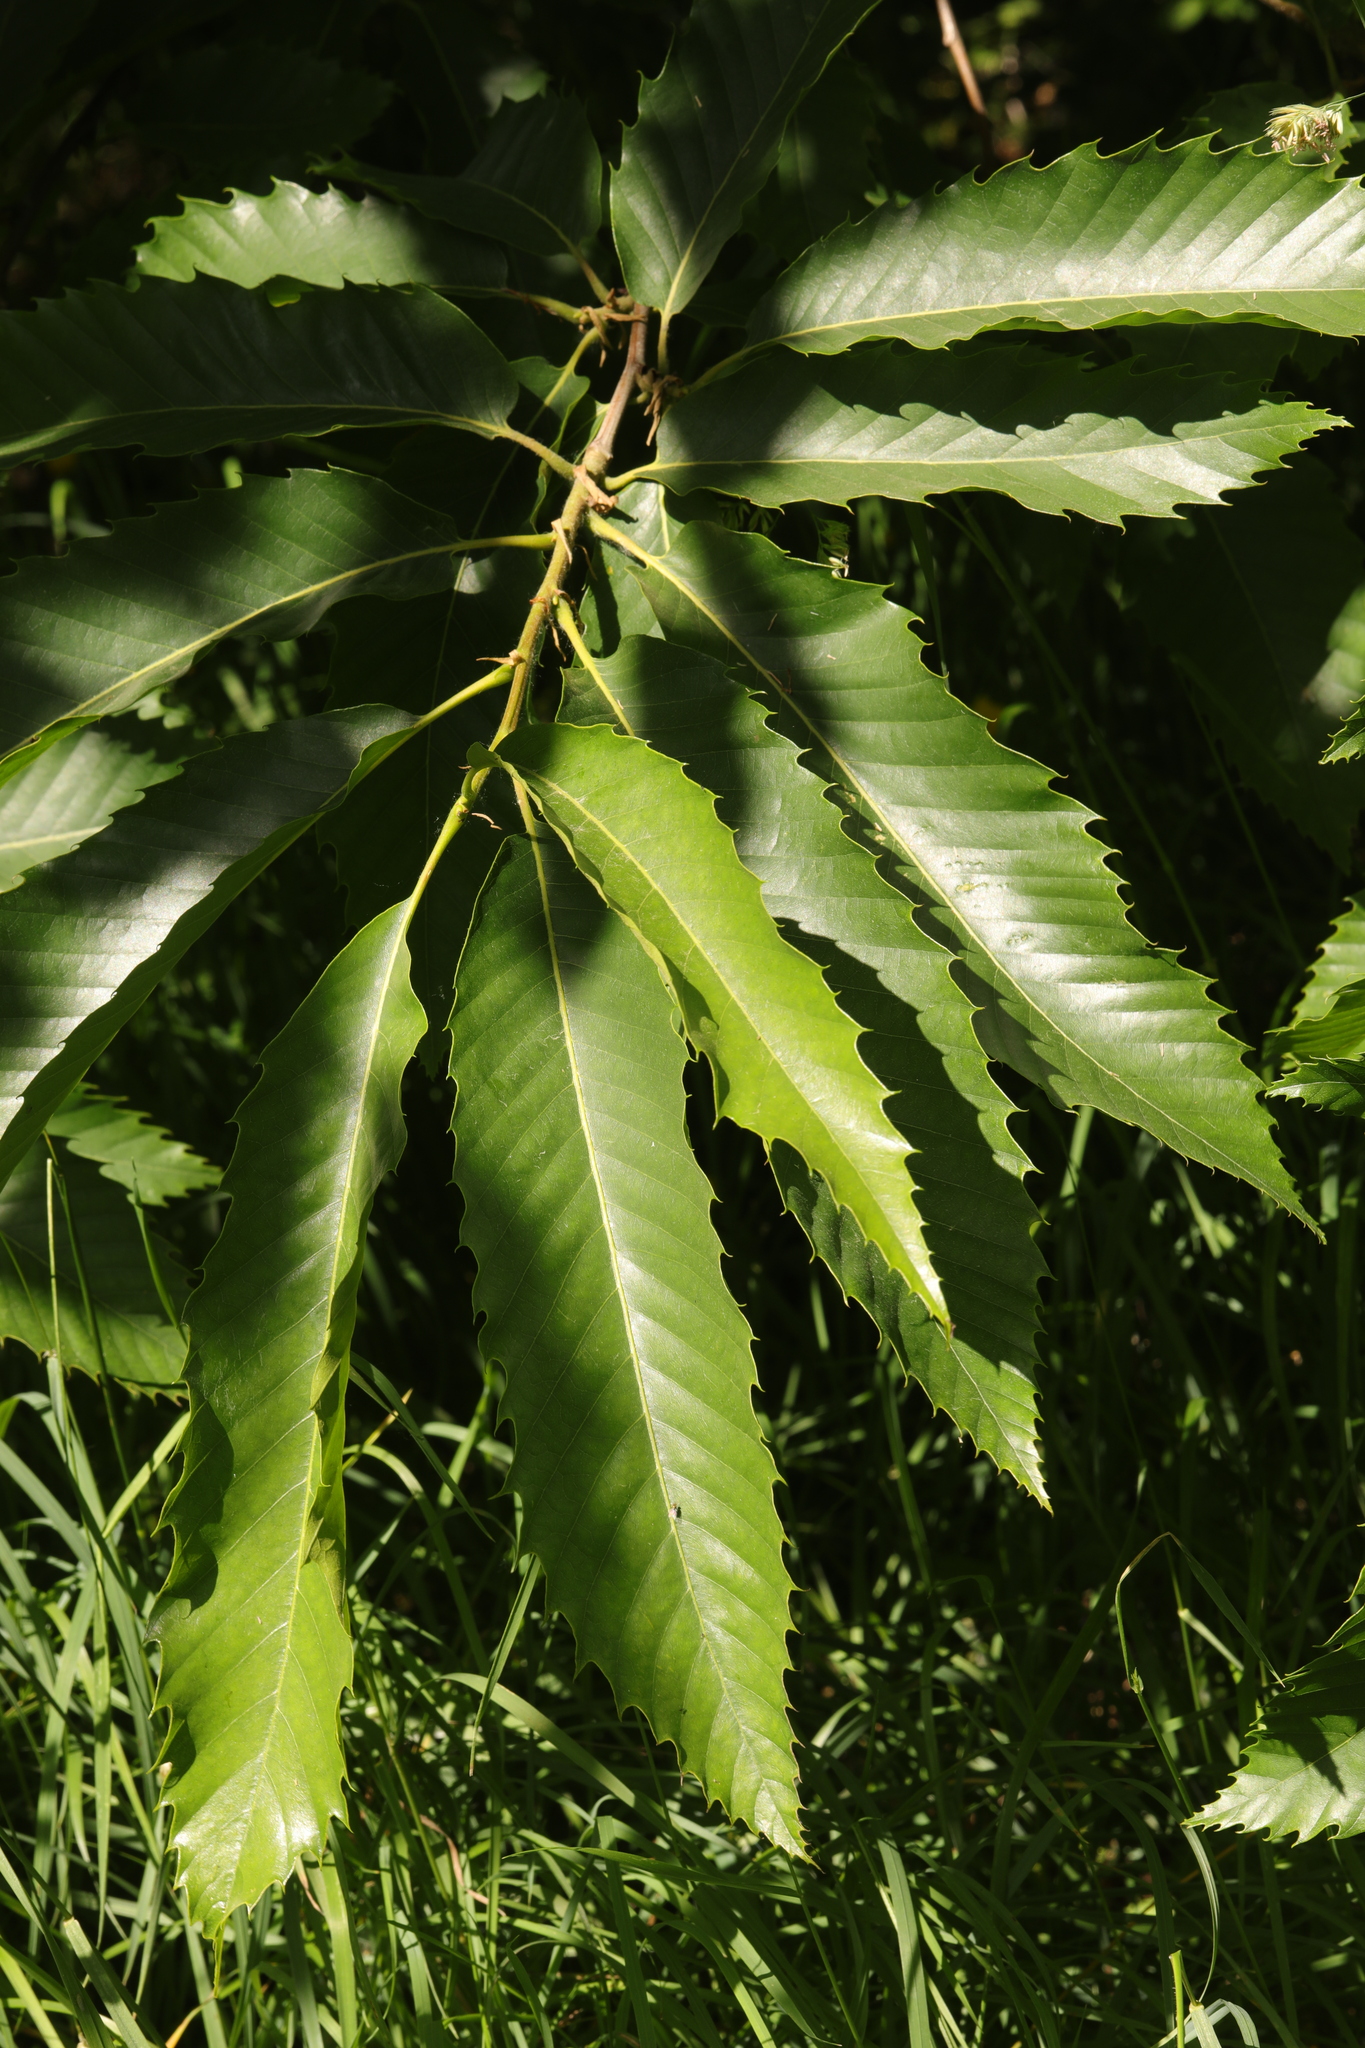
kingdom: Plantae
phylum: Tracheophyta
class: Magnoliopsida
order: Fagales
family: Fagaceae
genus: Castanea
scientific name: Castanea sativa
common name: Sweet chestnut
